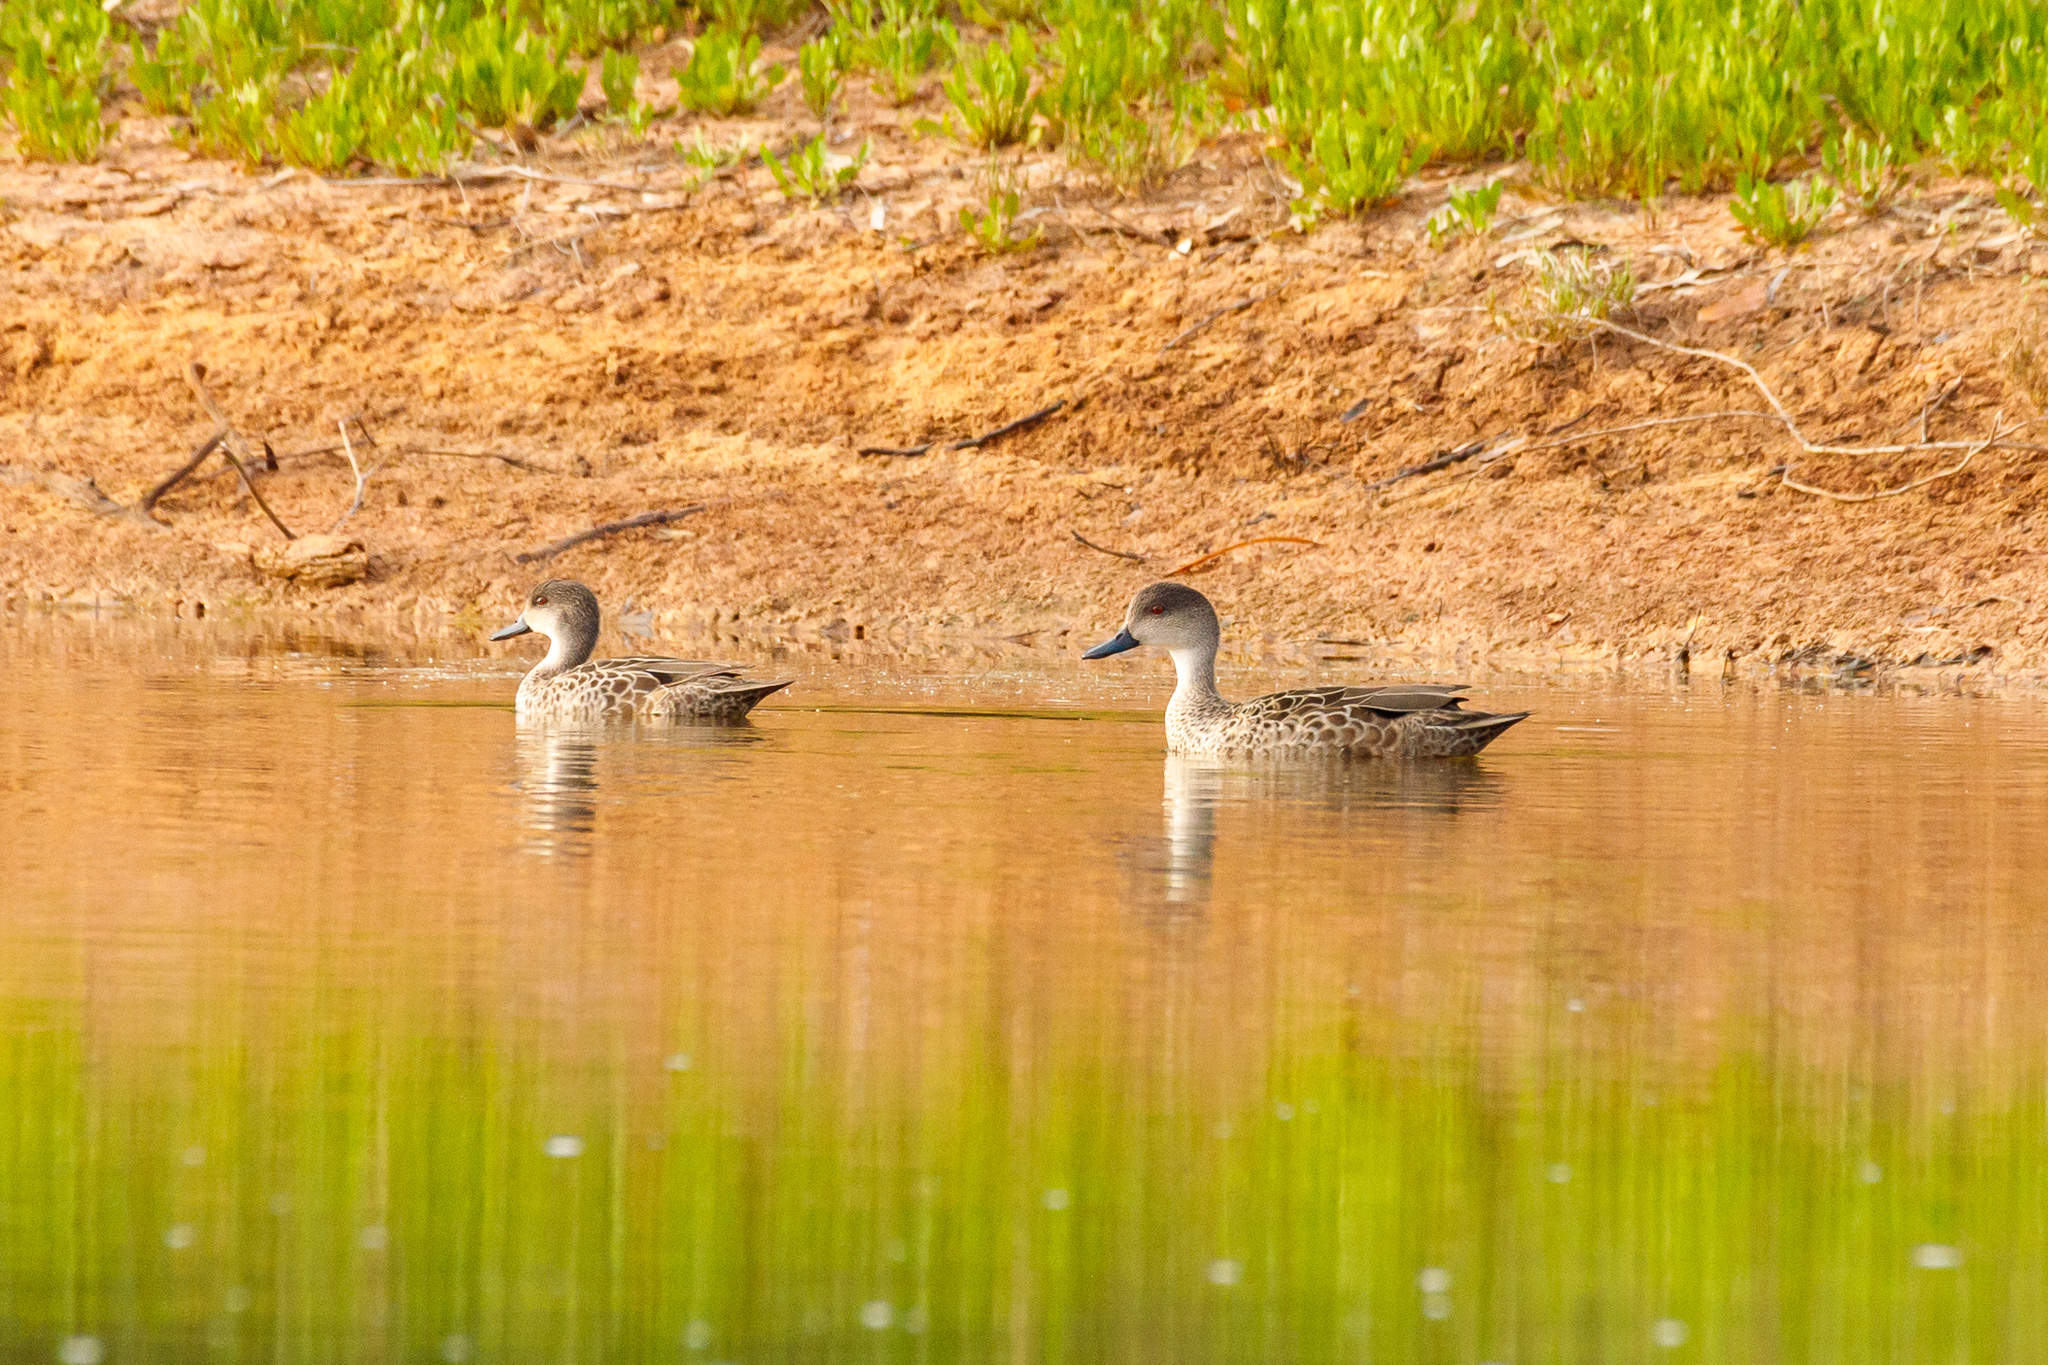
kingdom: Animalia
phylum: Chordata
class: Aves
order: Anseriformes
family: Anatidae
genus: Anas
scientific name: Anas gracilis
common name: Grey teal
